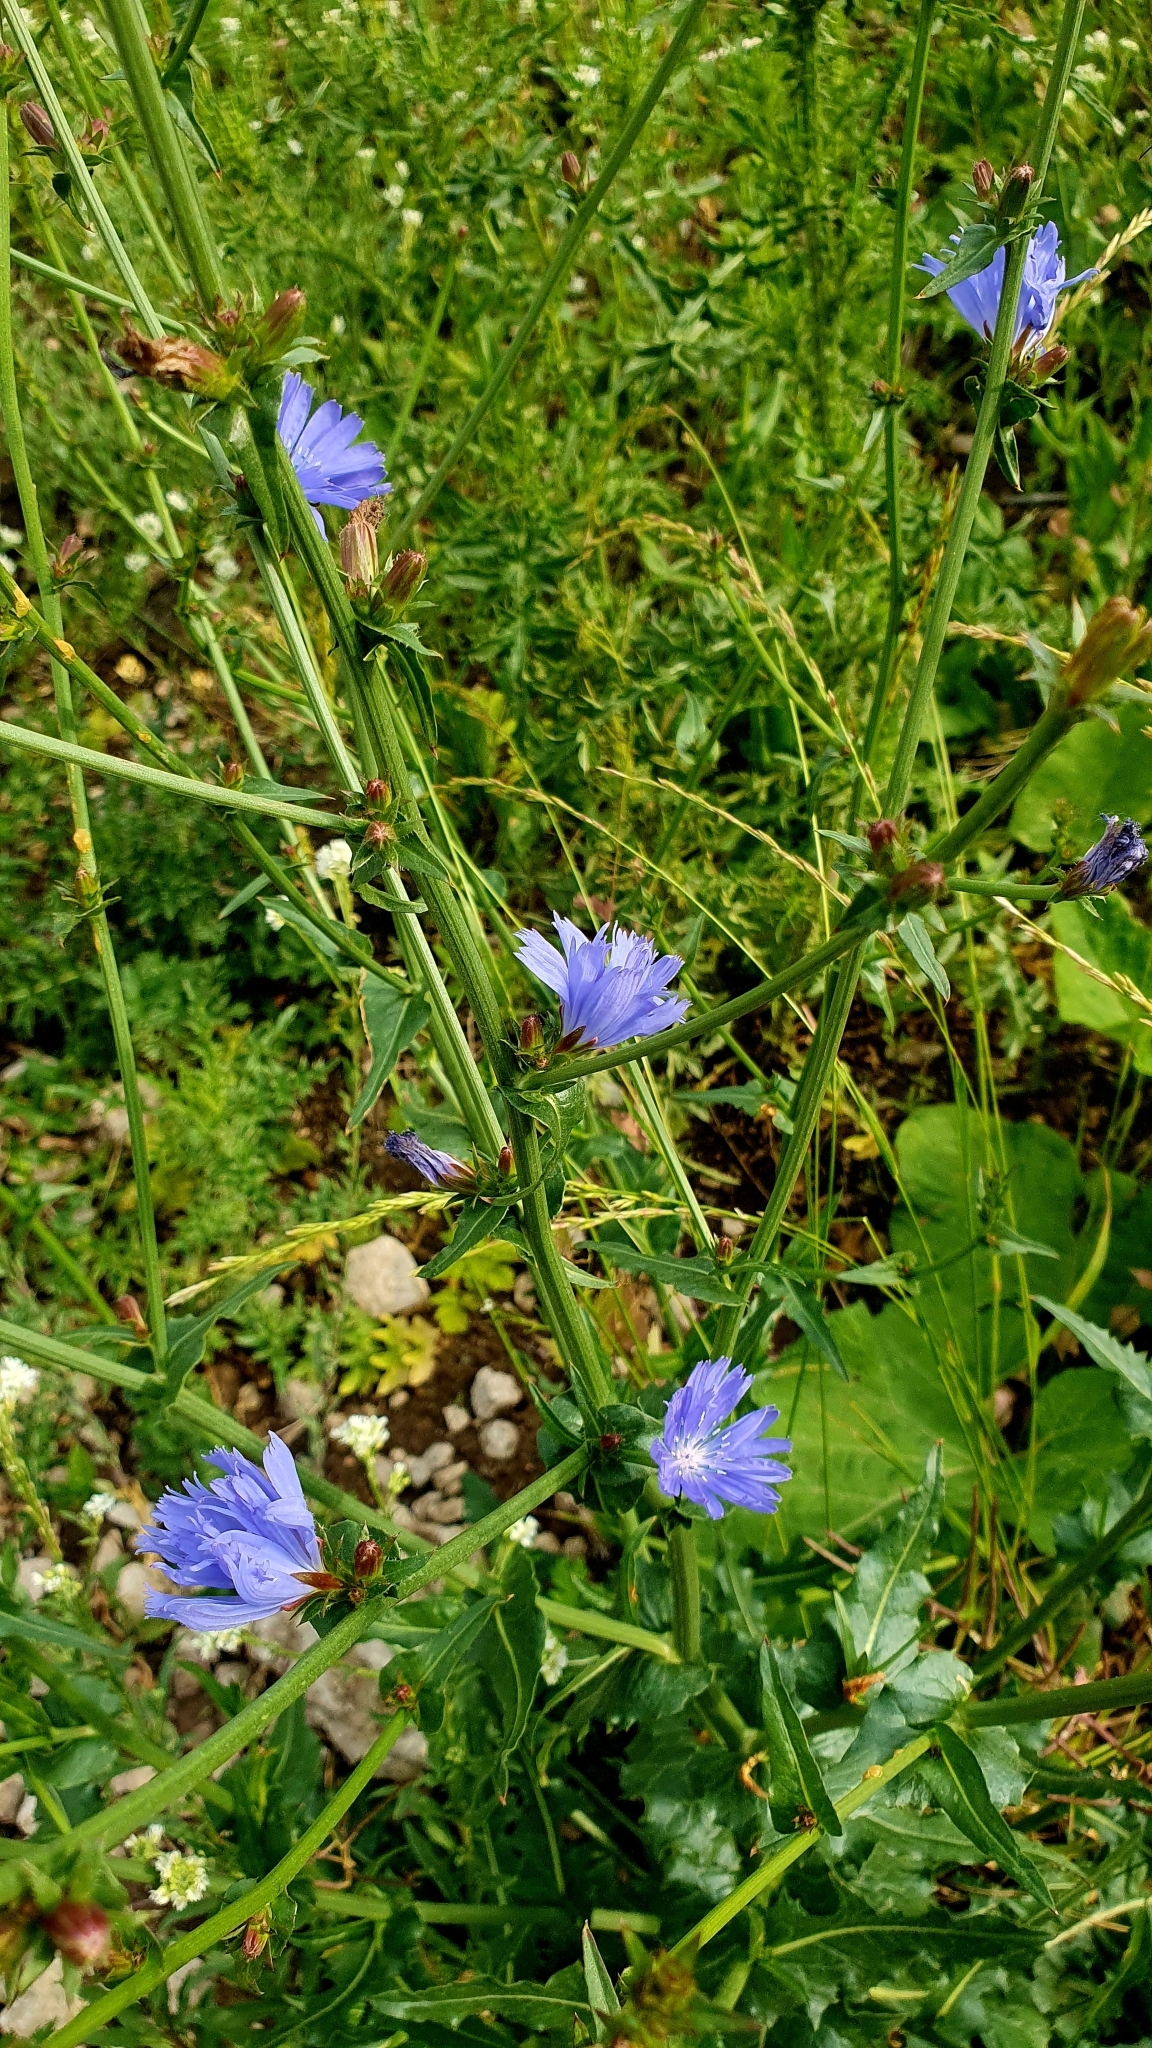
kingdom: Plantae
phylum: Tracheophyta
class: Magnoliopsida
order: Asterales
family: Asteraceae
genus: Cichorium
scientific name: Cichorium intybus
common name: Chicory
